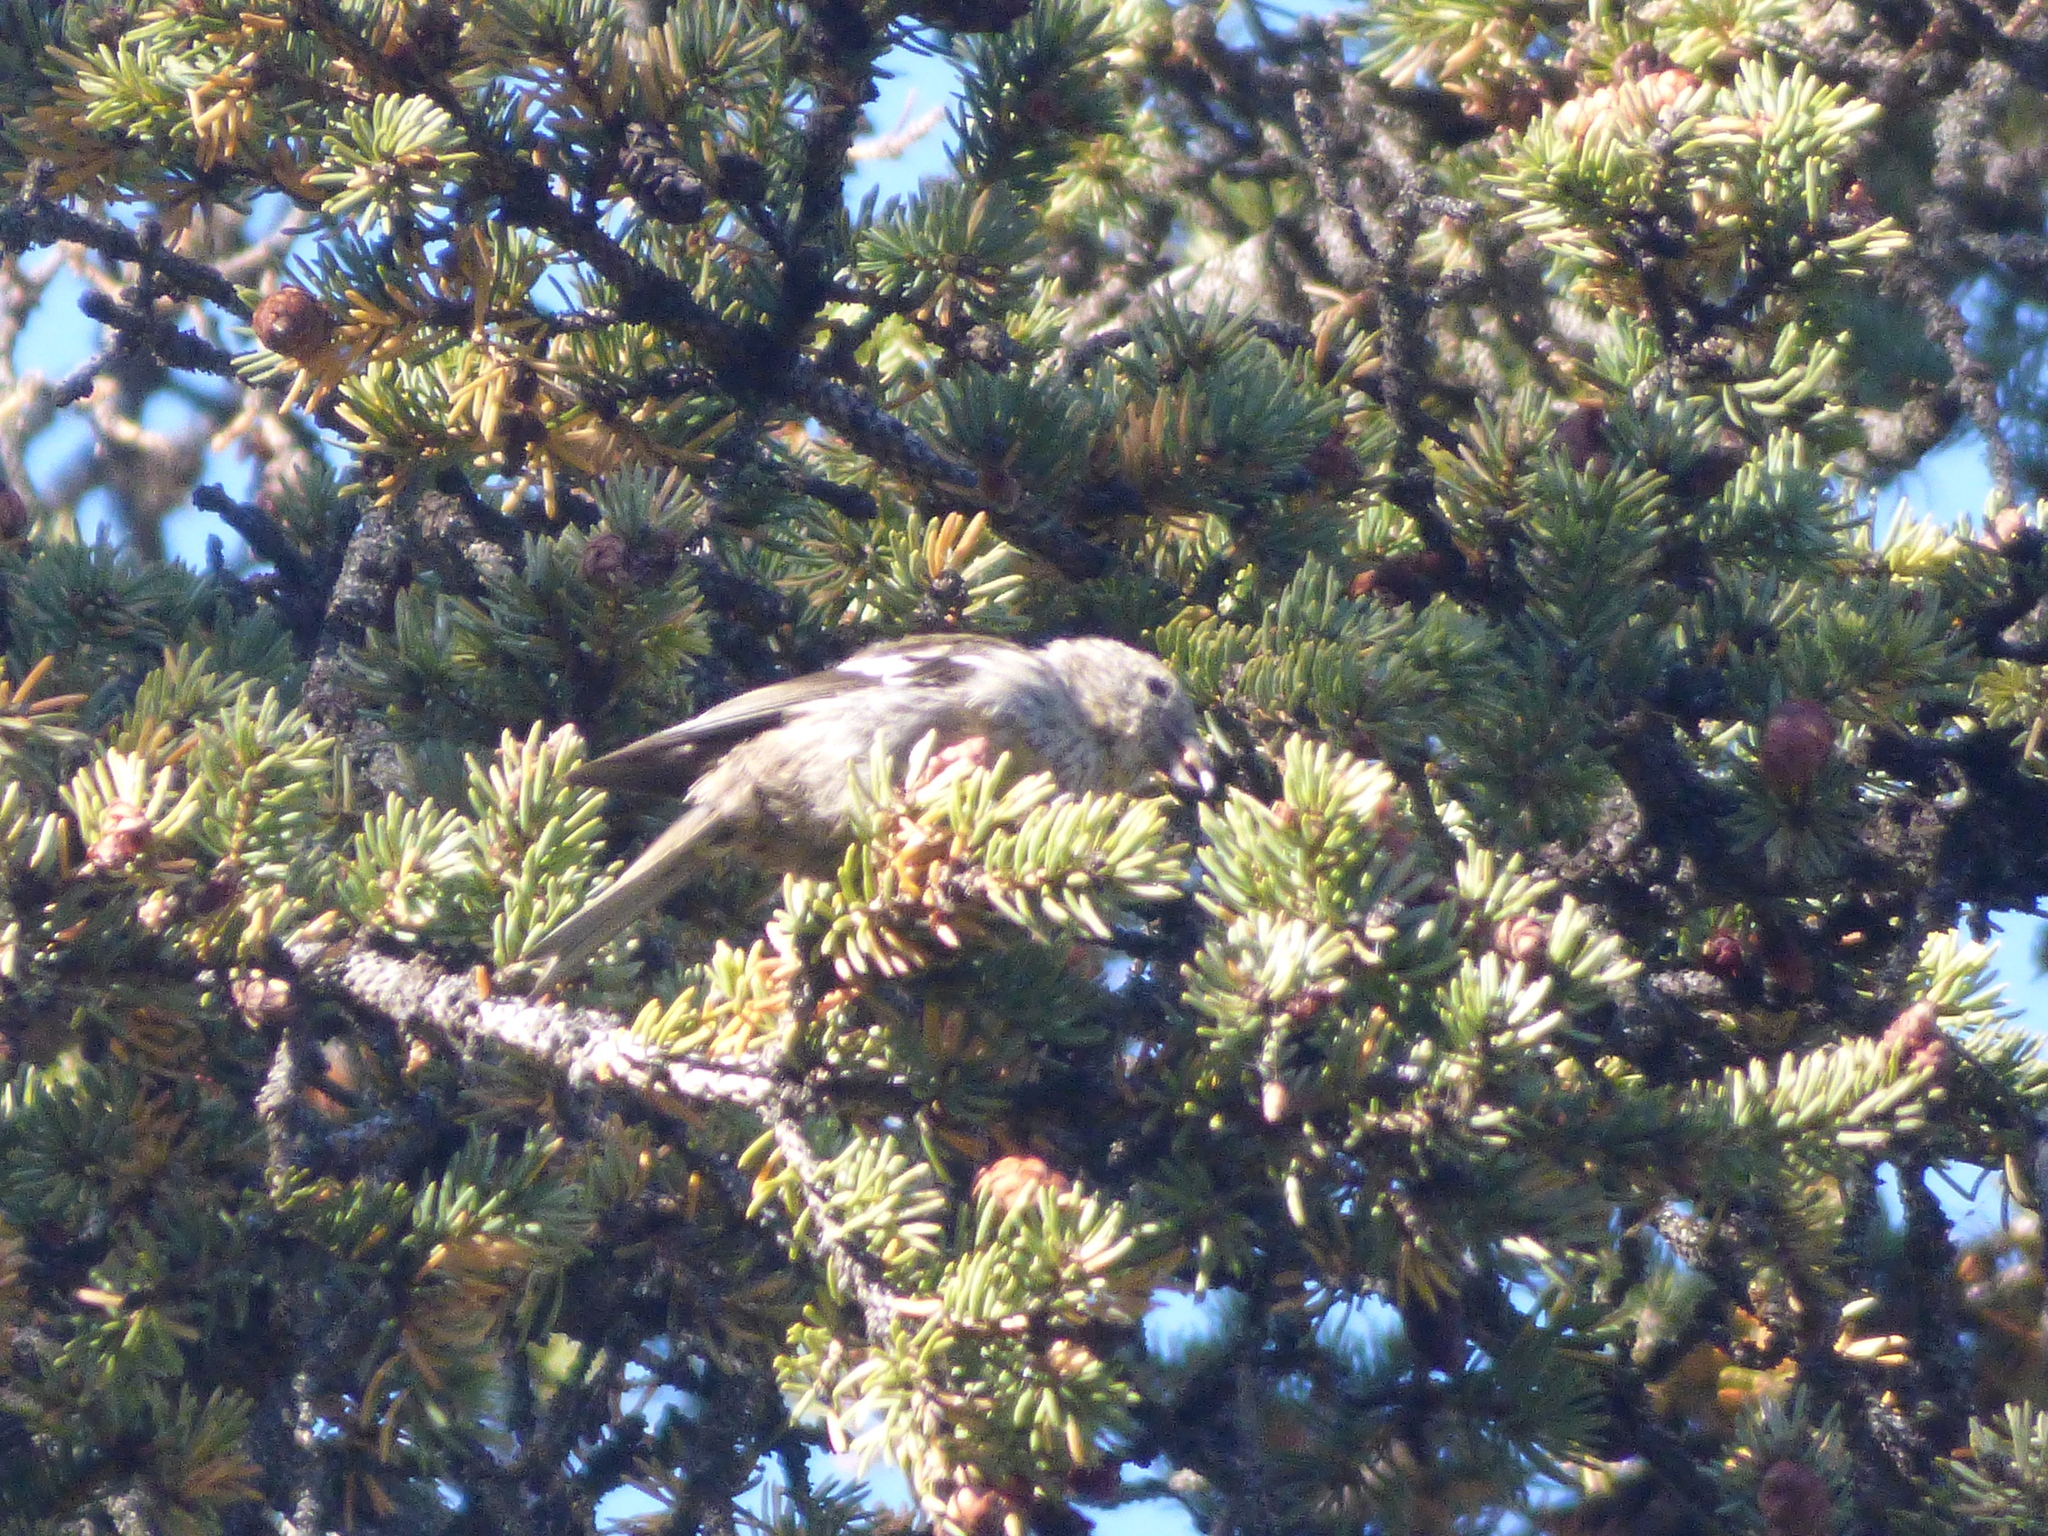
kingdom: Animalia
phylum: Chordata
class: Aves
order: Passeriformes
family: Fringillidae
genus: Loxia
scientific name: Loxia leucoptera
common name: Two-barred crossbill
